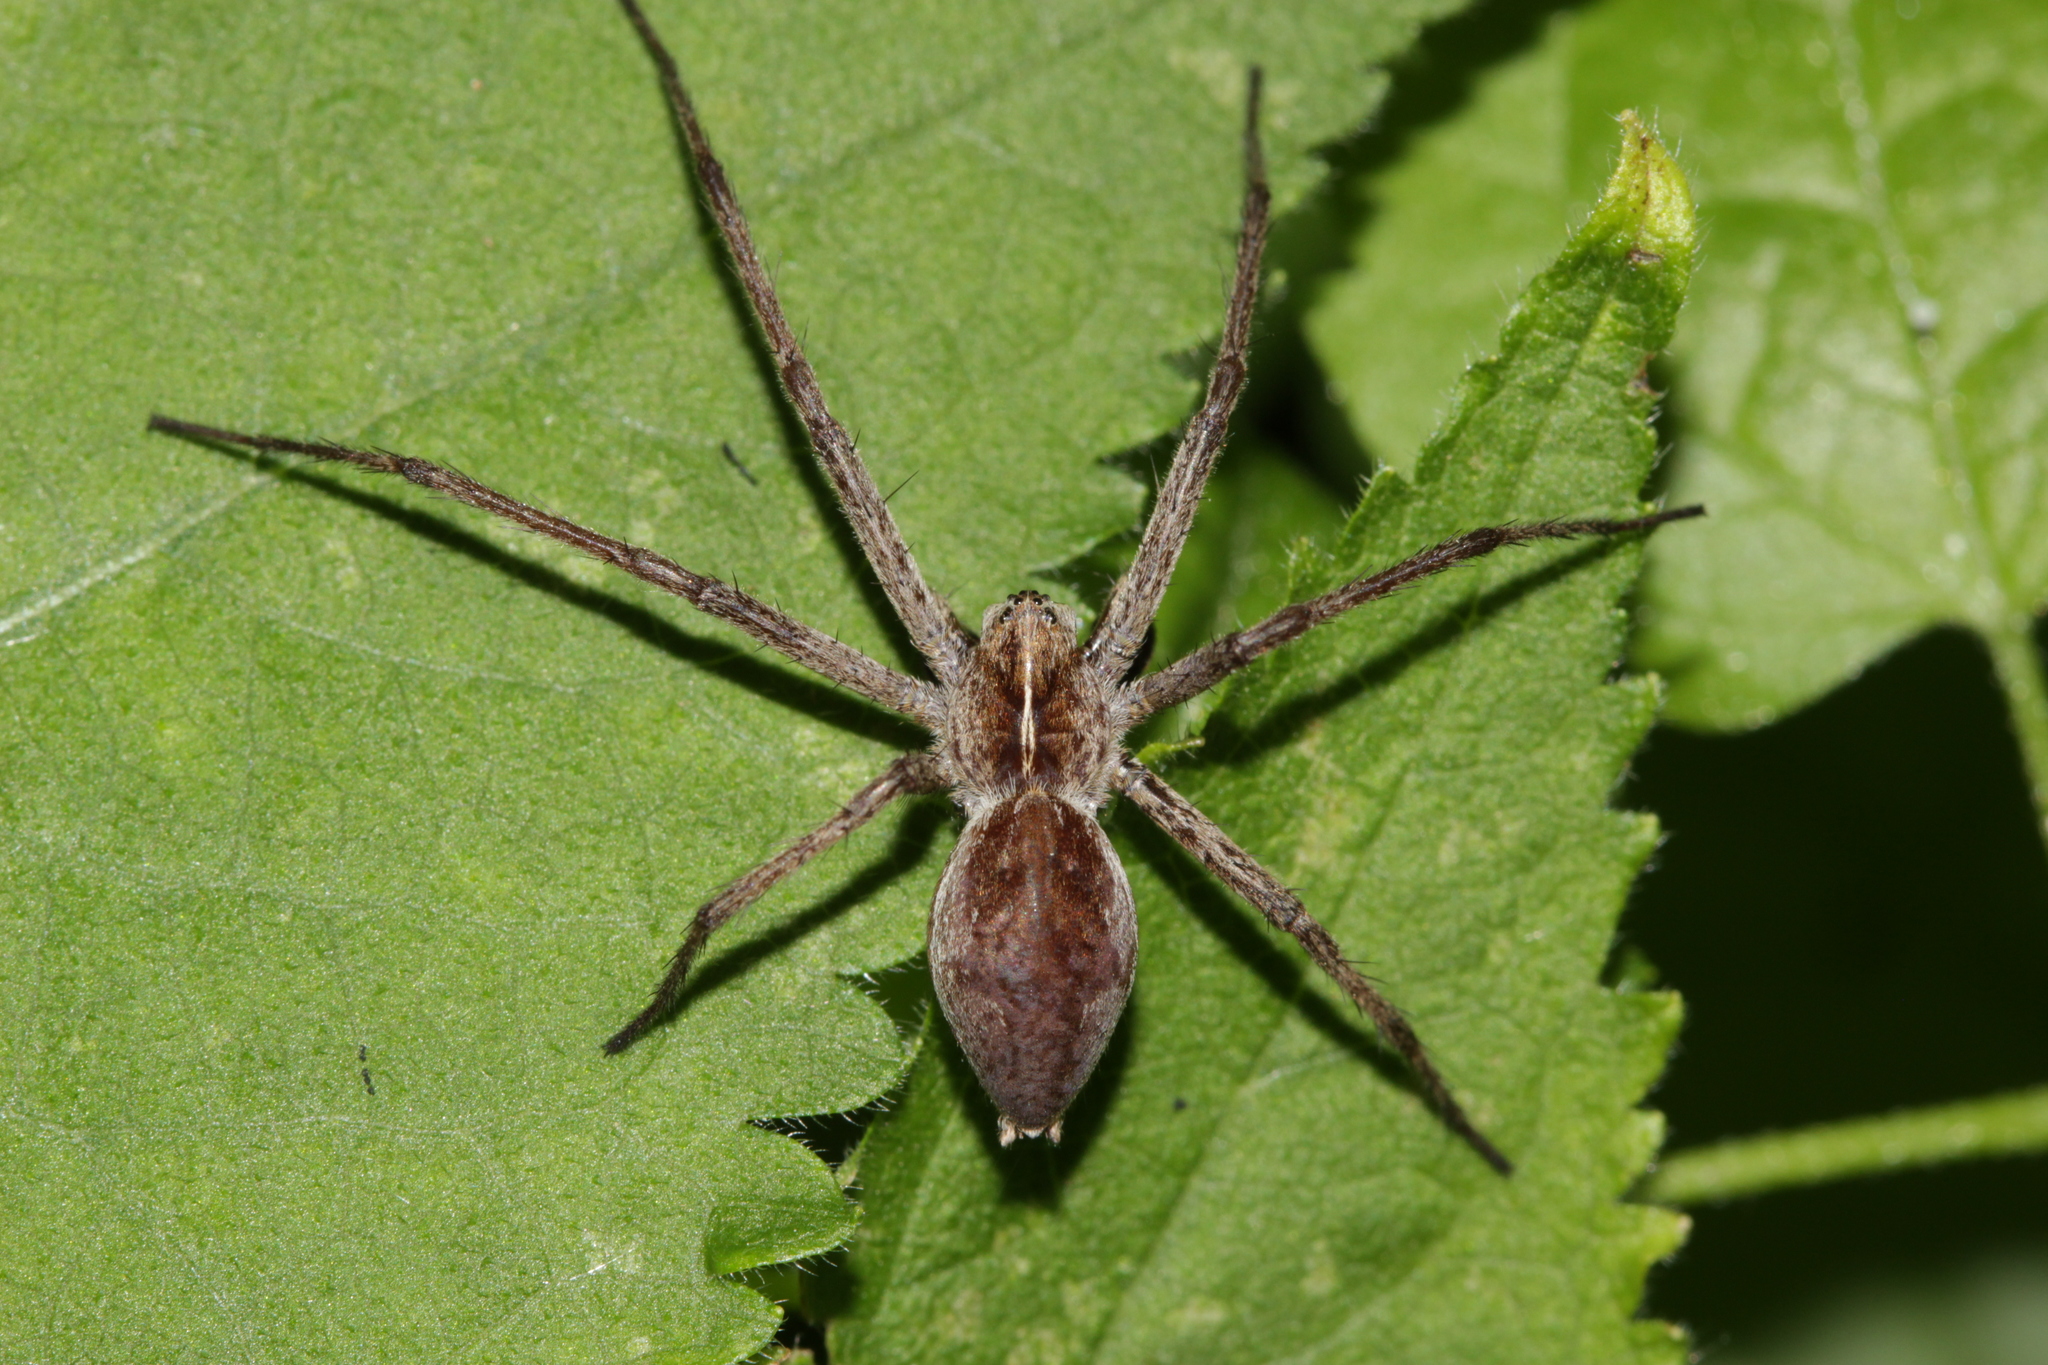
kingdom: Animalia
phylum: Arthropoda
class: Arachnida
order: Araneae
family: Pisauridae
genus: Pisaura
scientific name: Pisaura mirabilis
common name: Tent spider
